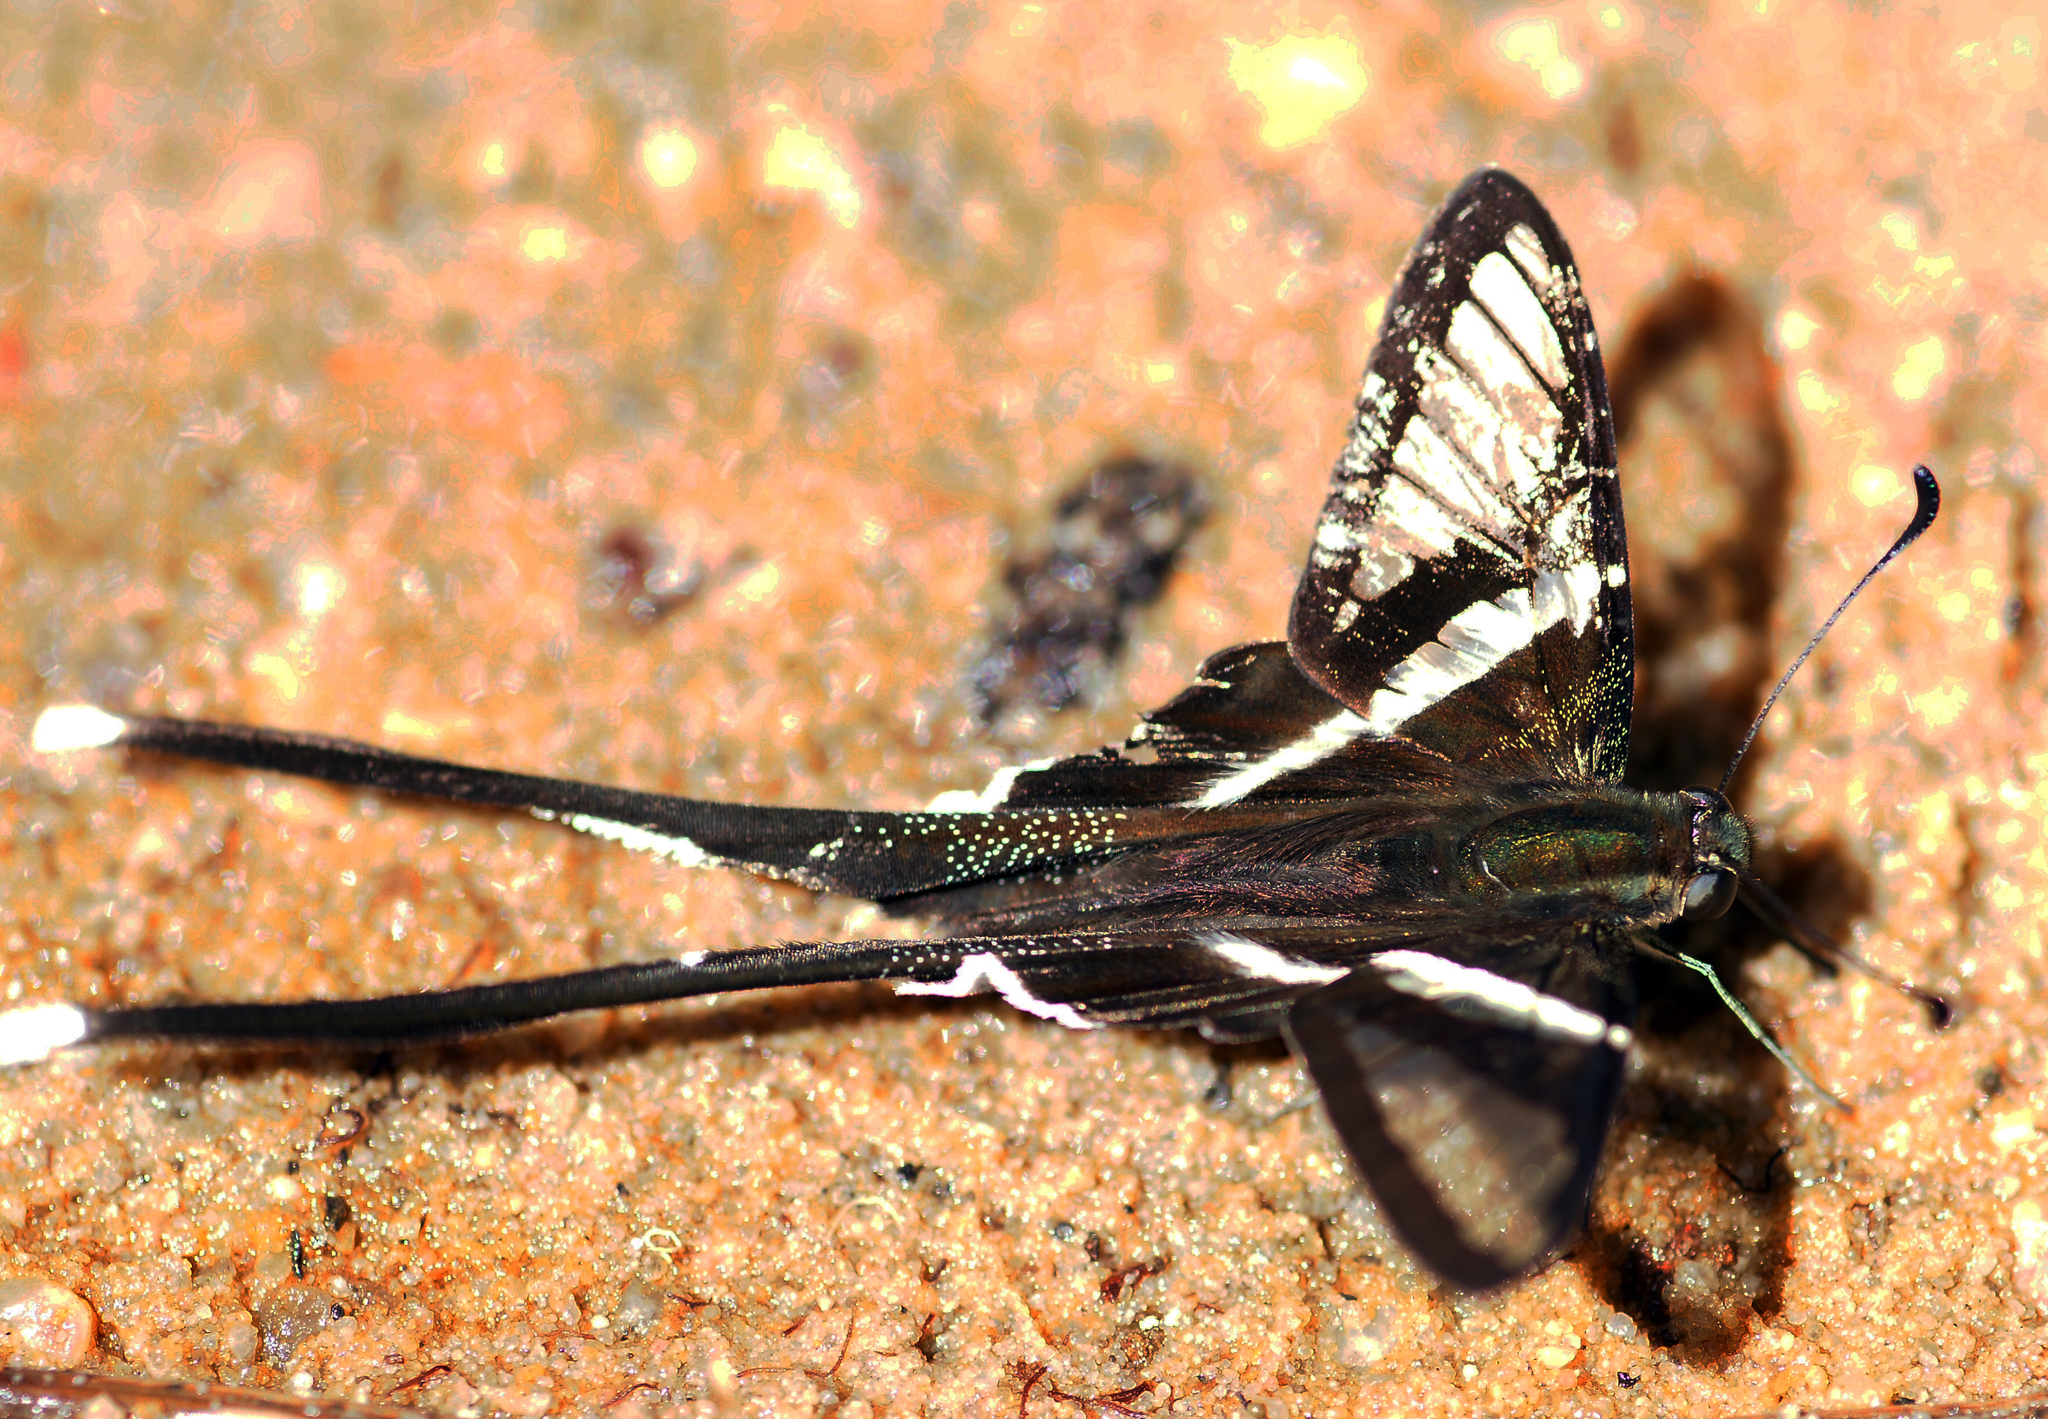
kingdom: Animalia
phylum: Arthropoda
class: Insecta
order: Lepidoptera
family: Papilionidae
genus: Lamproptera
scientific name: Lamproptera curius
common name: White dragontail
